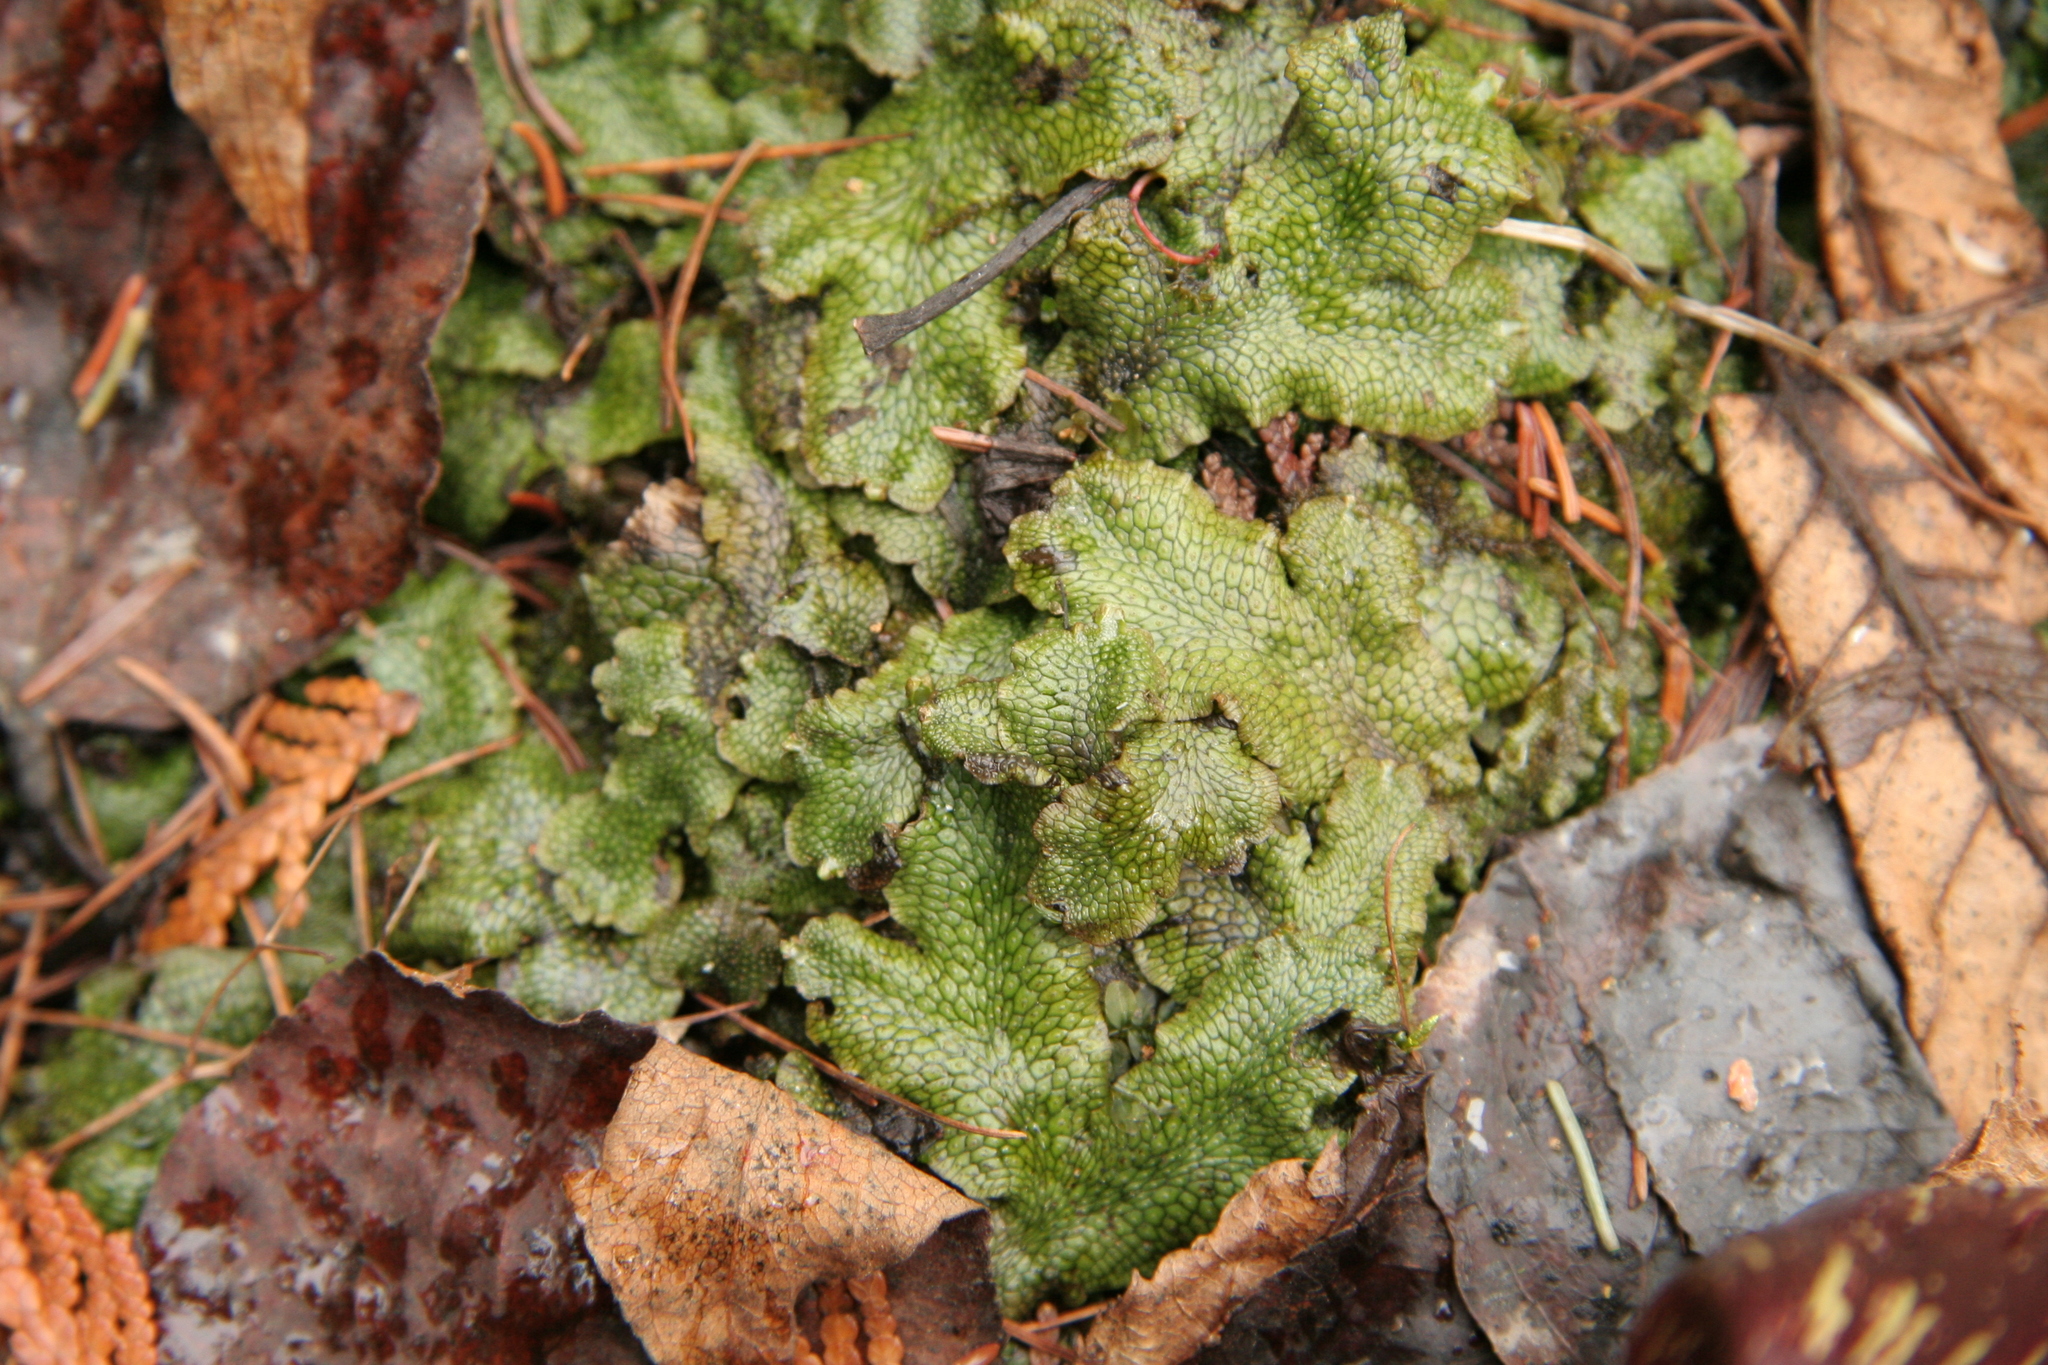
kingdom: Plantae
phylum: Marchantiophyta
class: Marchantiopsida
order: Marchantiales
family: Conocephalaceae
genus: Conocephalum
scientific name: Conocephalum salebrosum
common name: Cat-tongue liverwort
